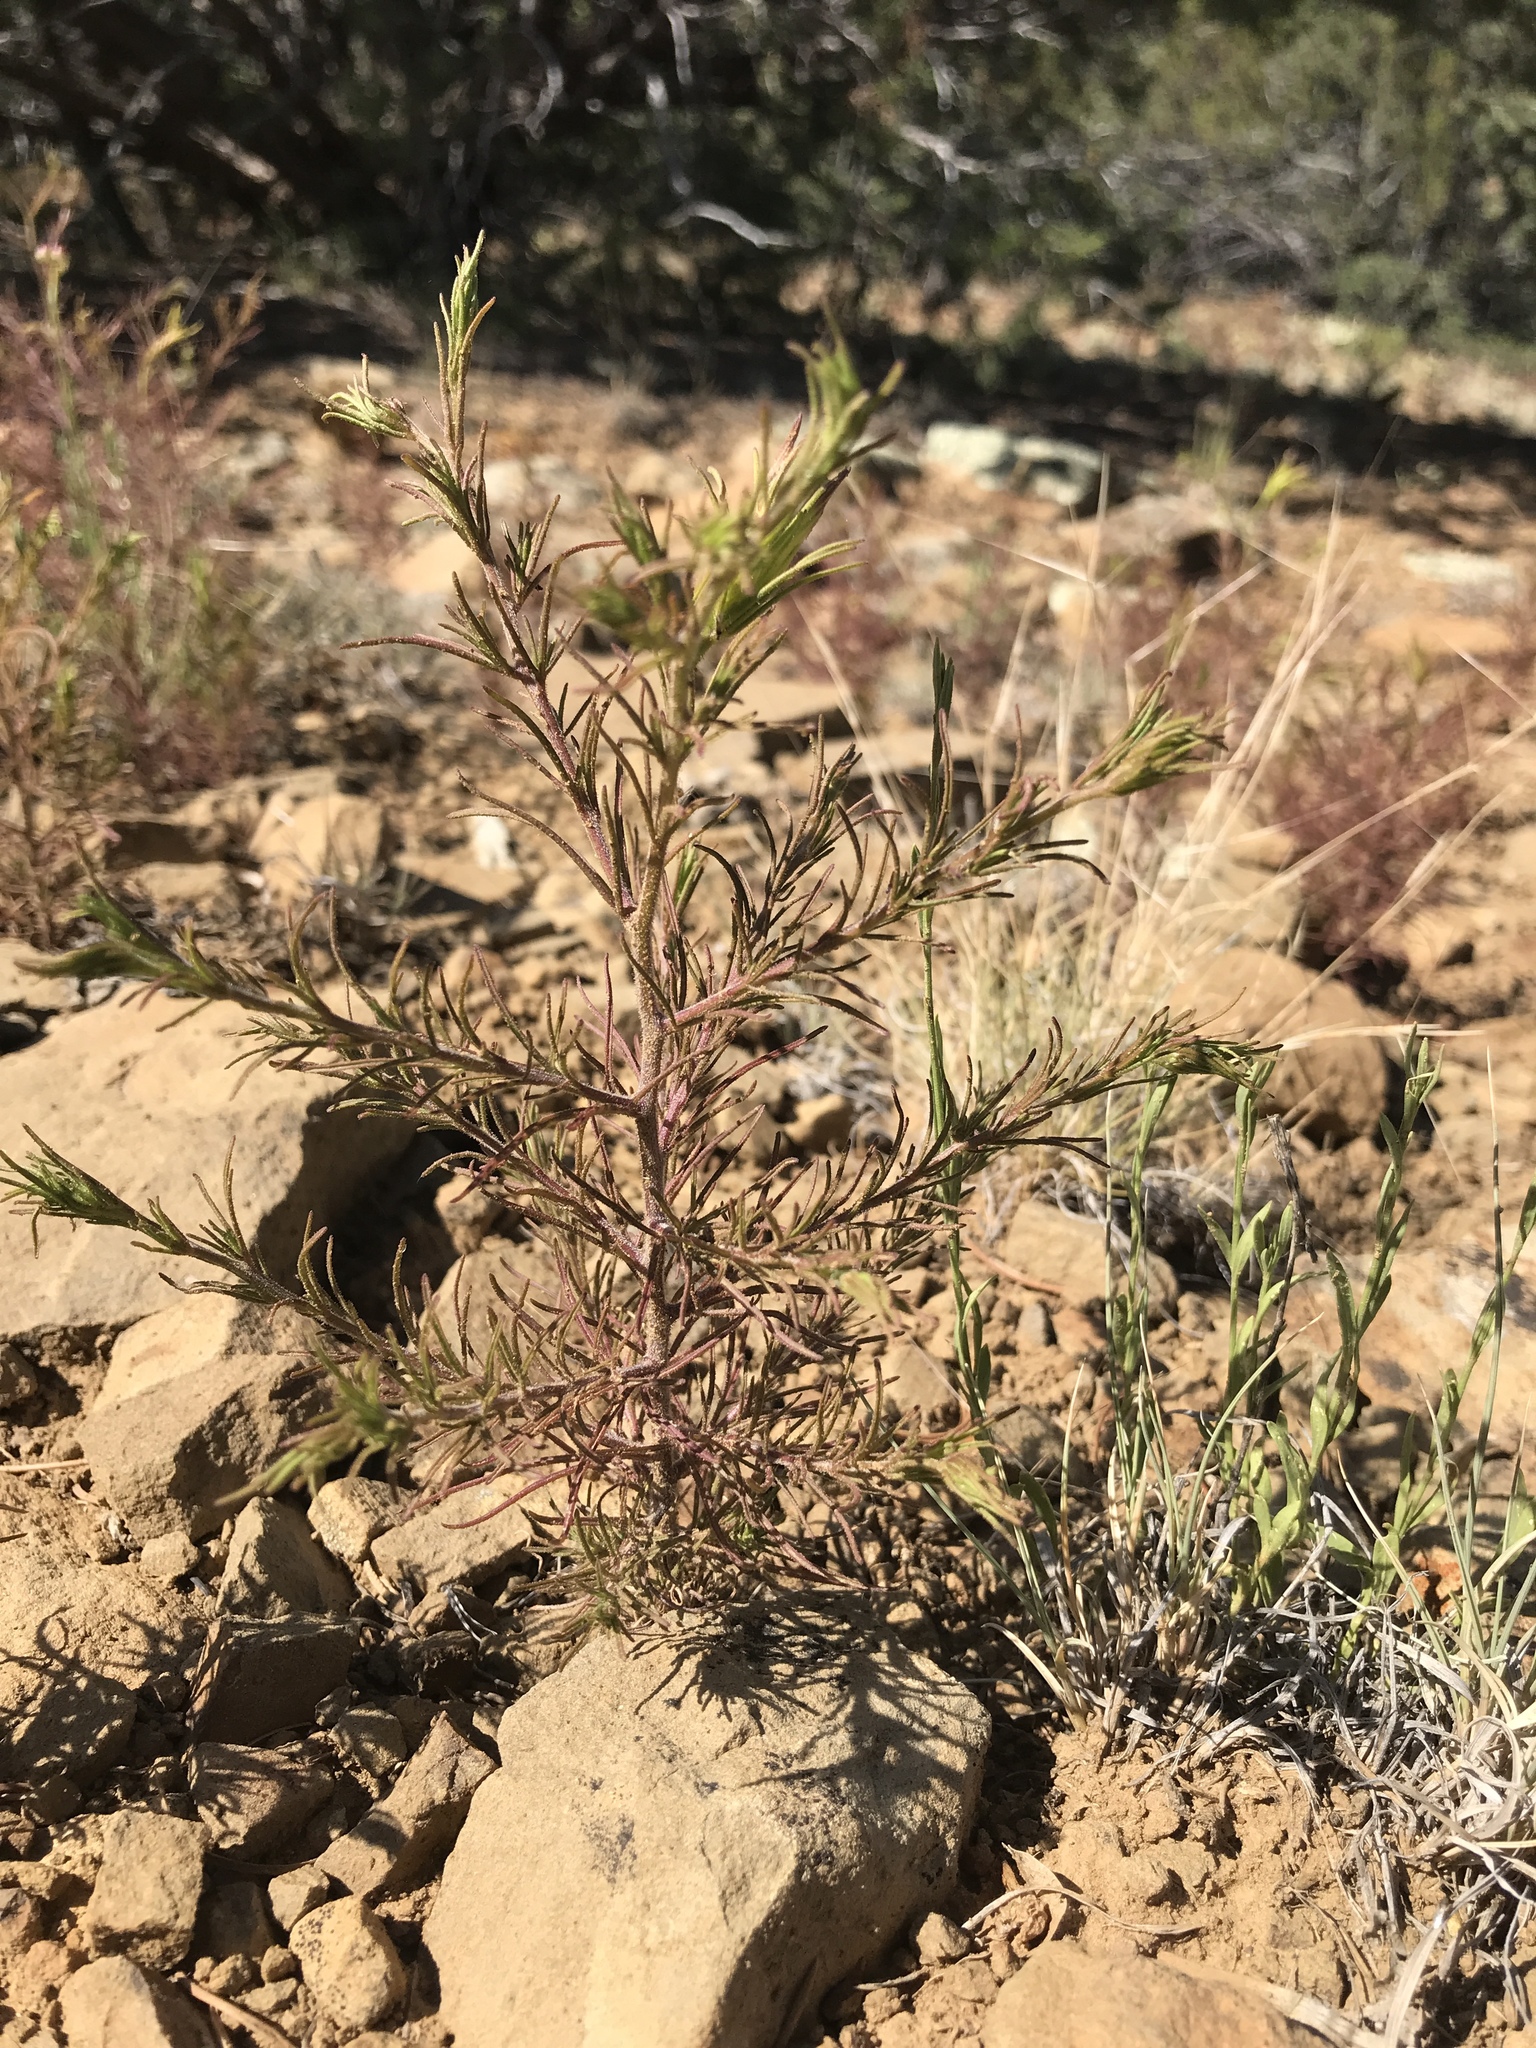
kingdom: Plantae
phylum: Tracheophyta
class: Magnoliopsida
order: Lamiales
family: Orobanchaceae
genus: Cordylanthus
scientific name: Cordylanthus wrightii
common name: Wright's birdsbeak
